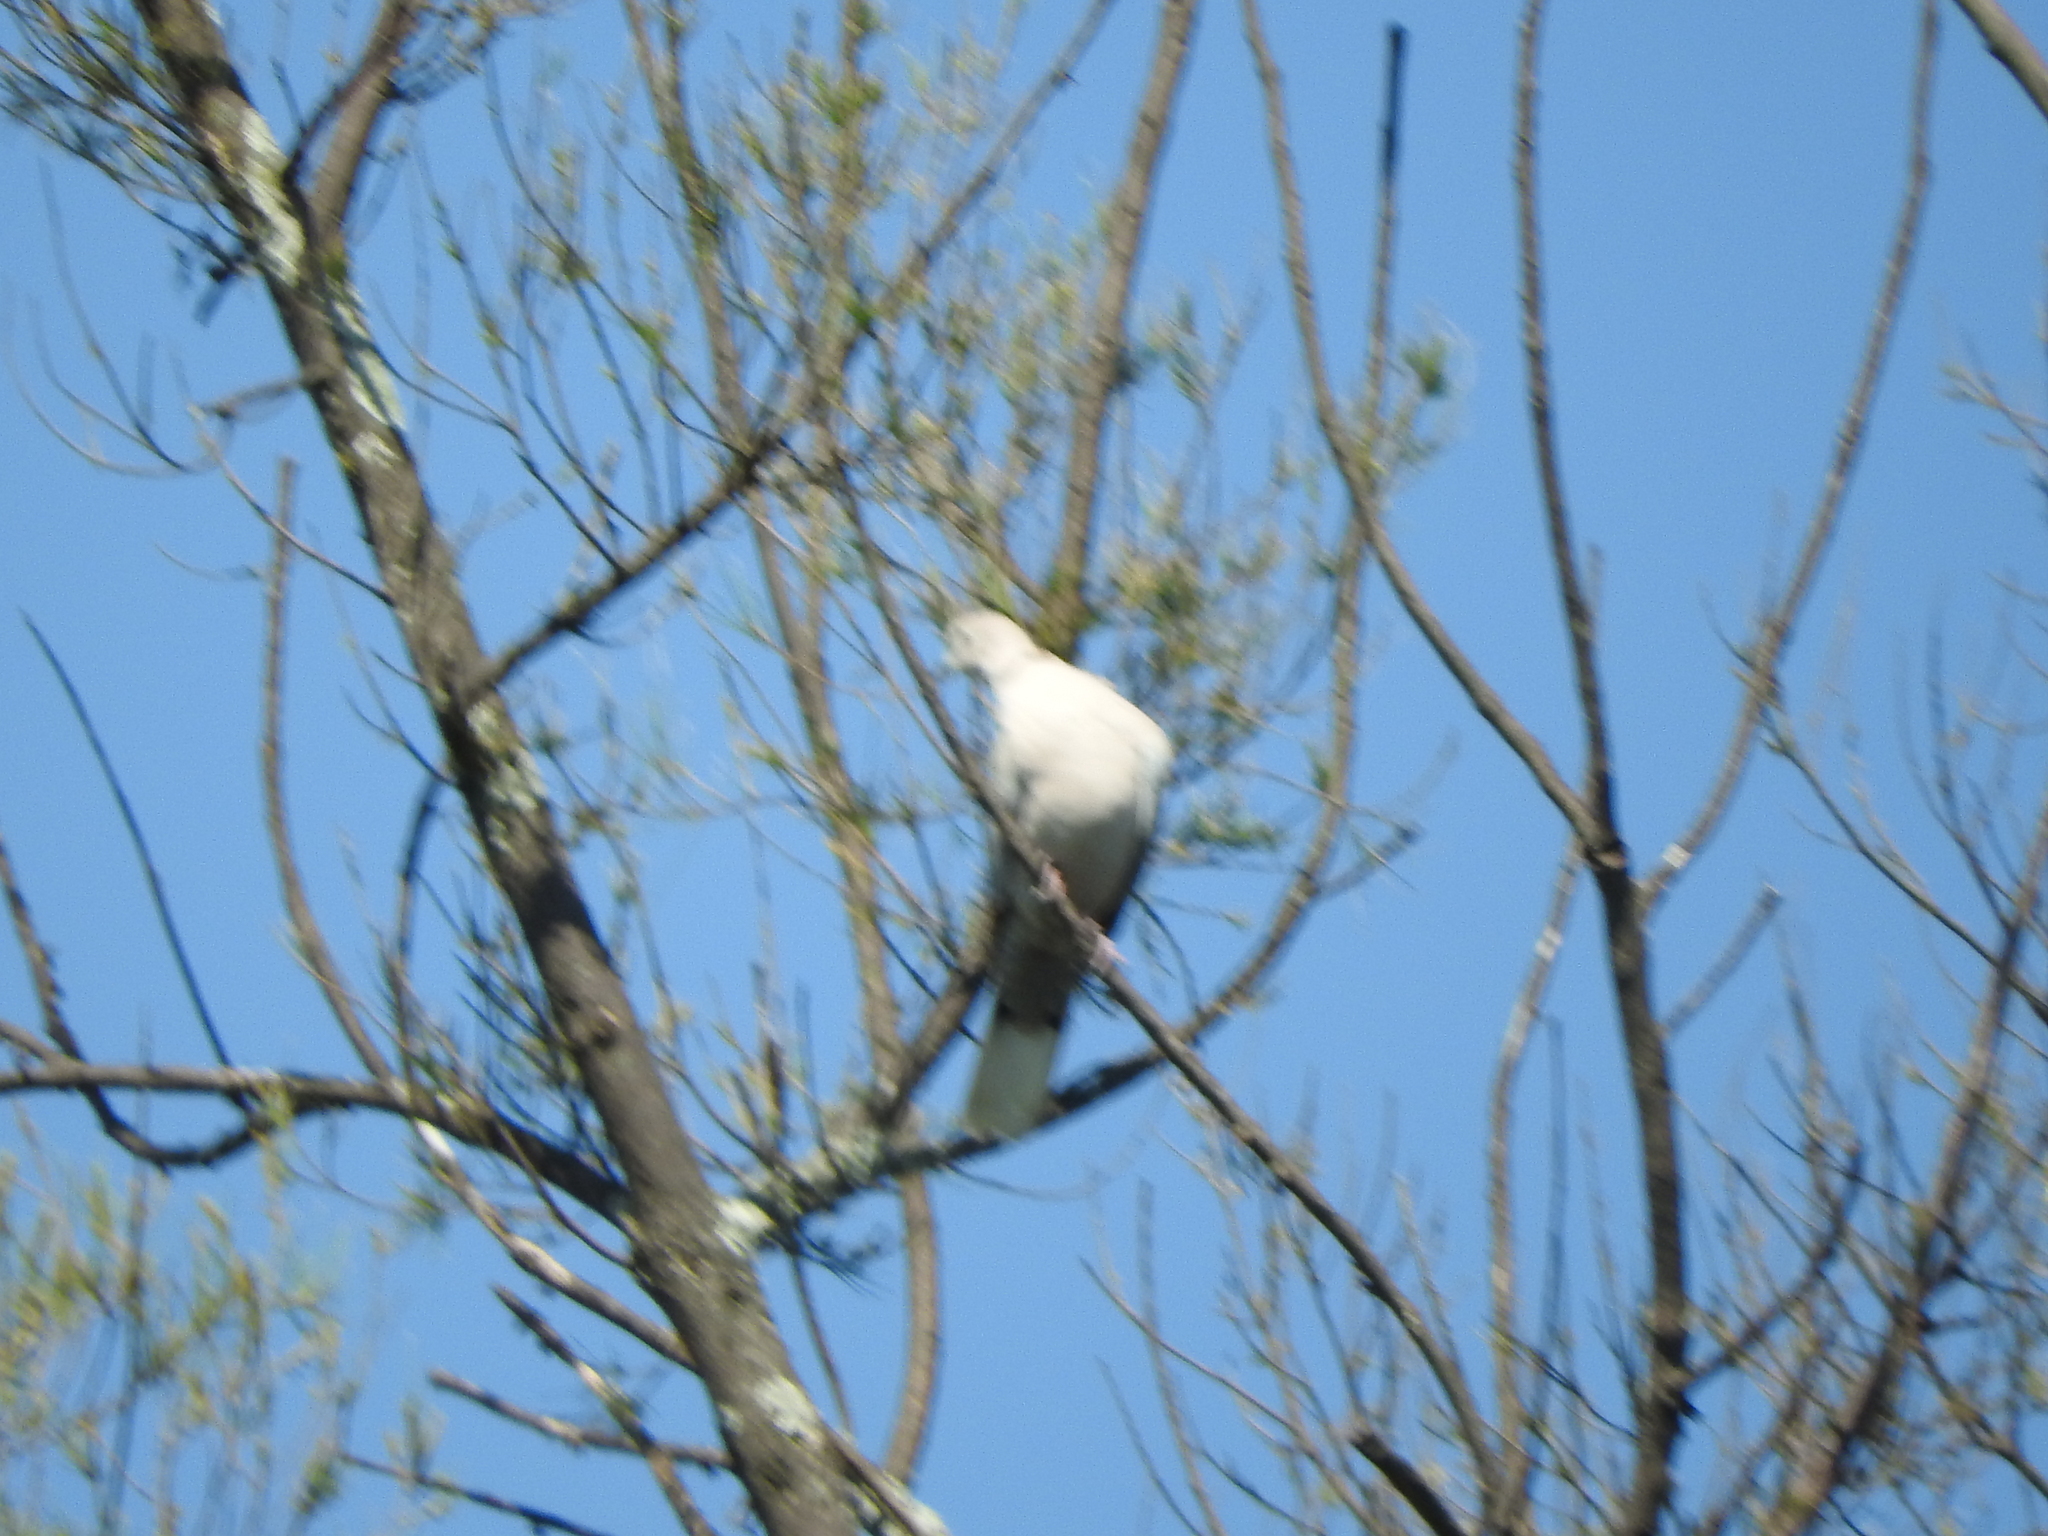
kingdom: Animalia
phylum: Chordata
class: Aves
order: Columbiformes
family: Columbidae
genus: Streptopelia
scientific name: Streptopelia decaocto
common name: Eurasian collared dove
